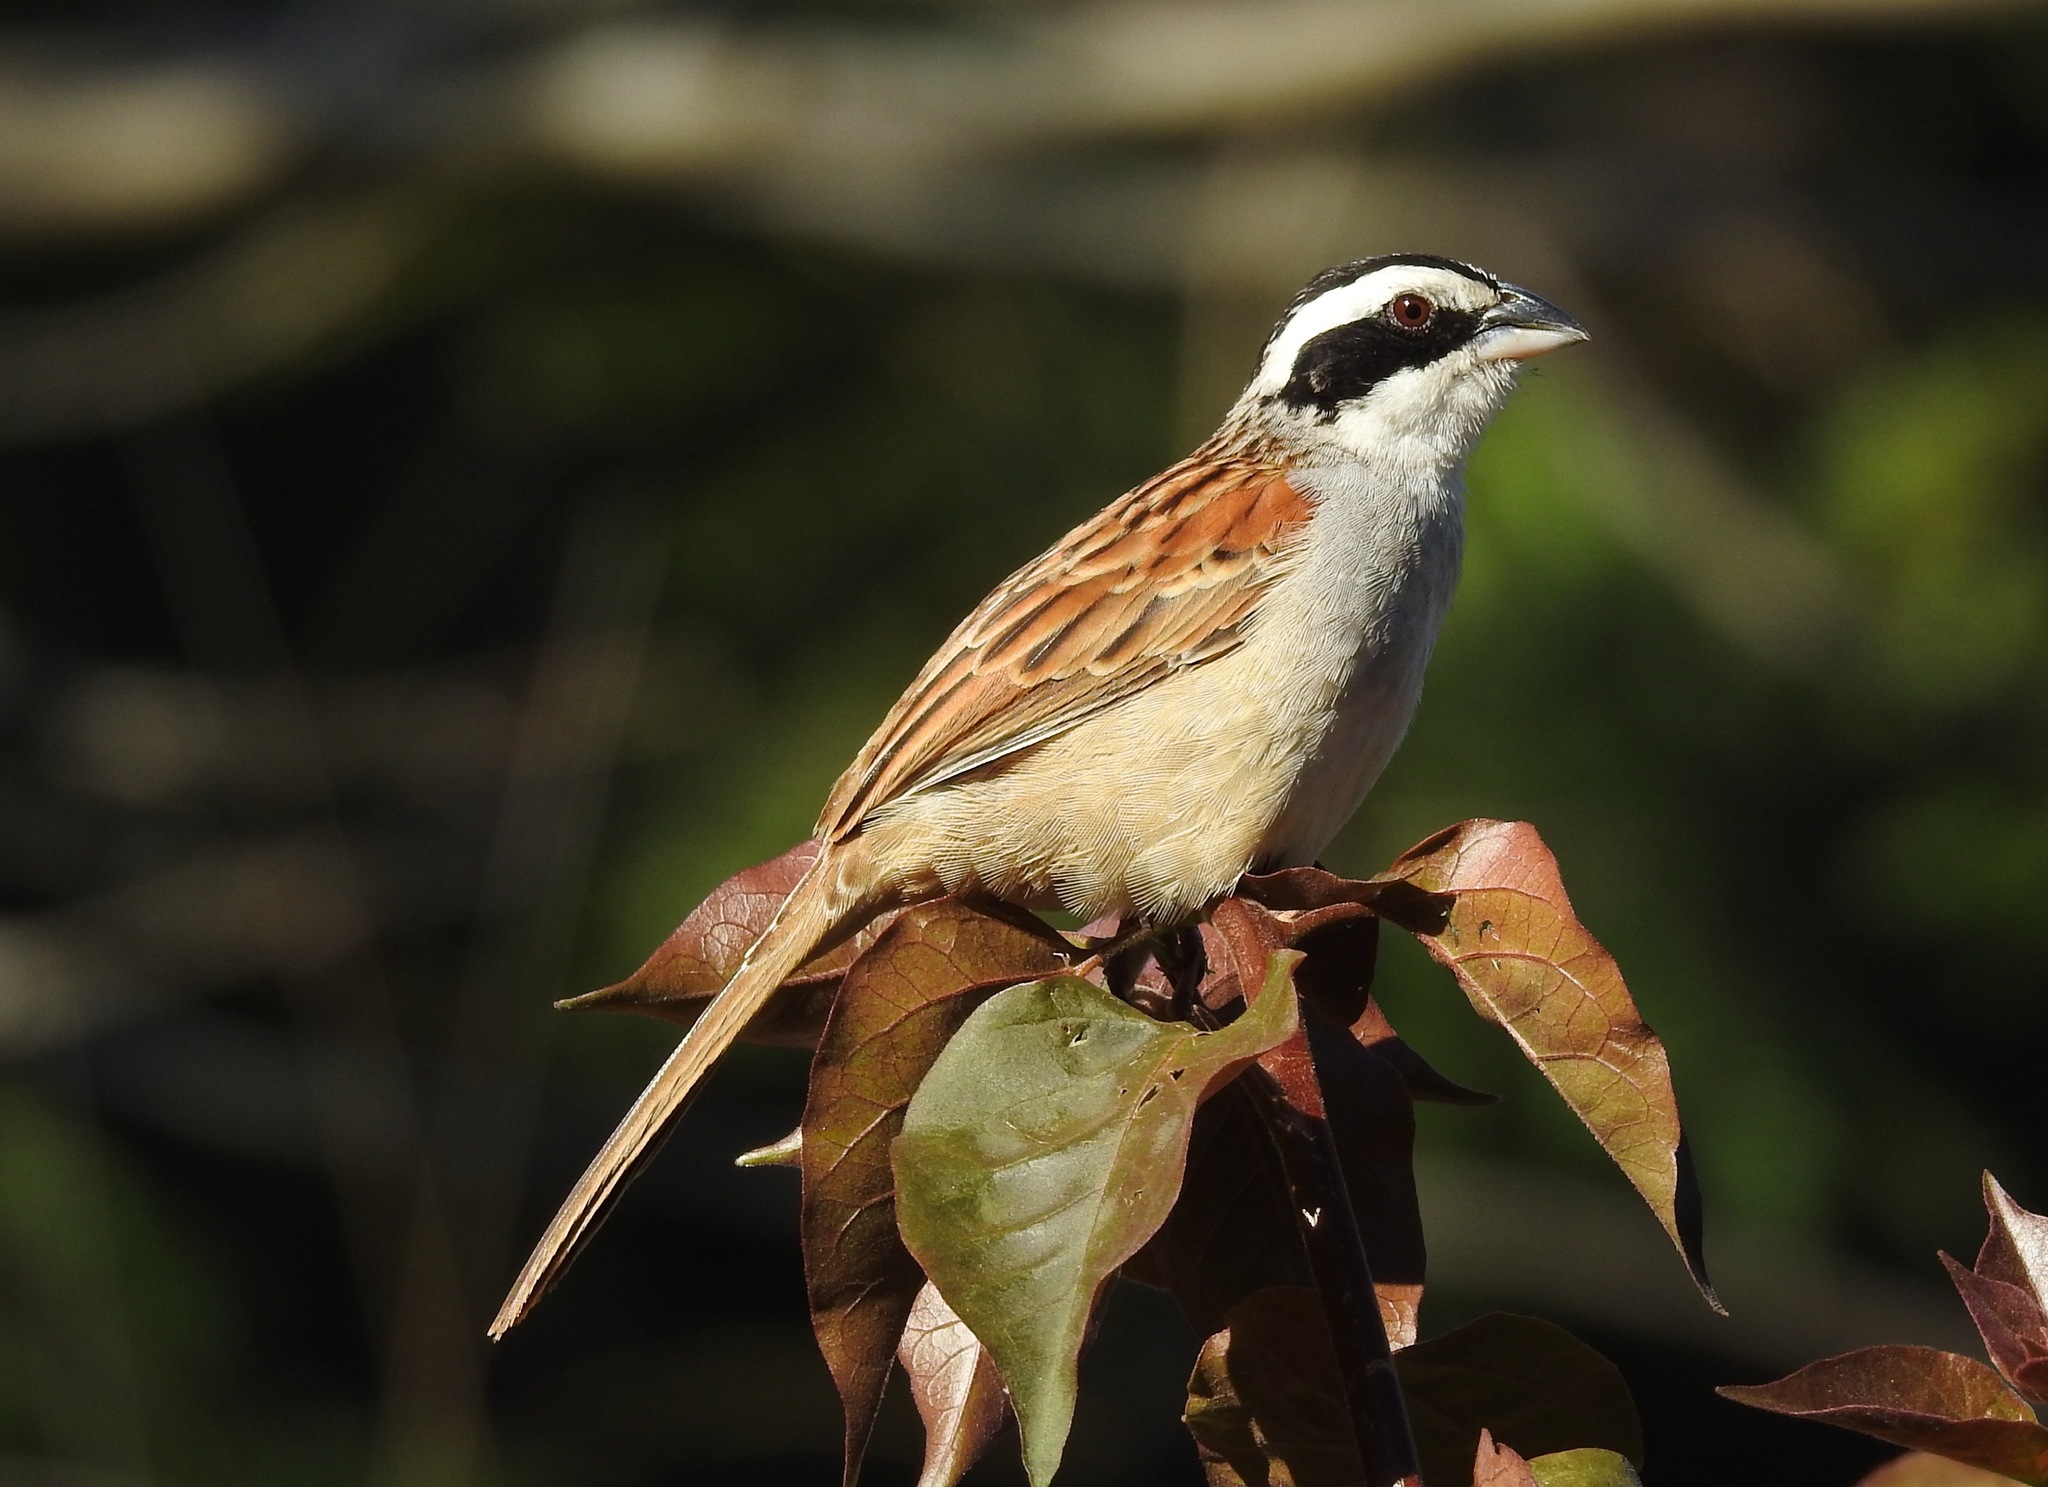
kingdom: Animalia
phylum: Chordata
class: Aves
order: Passeriformes
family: Passerellidae
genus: Peucaea
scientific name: Peucaea ruficauda
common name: Stripe-headed sparrow
